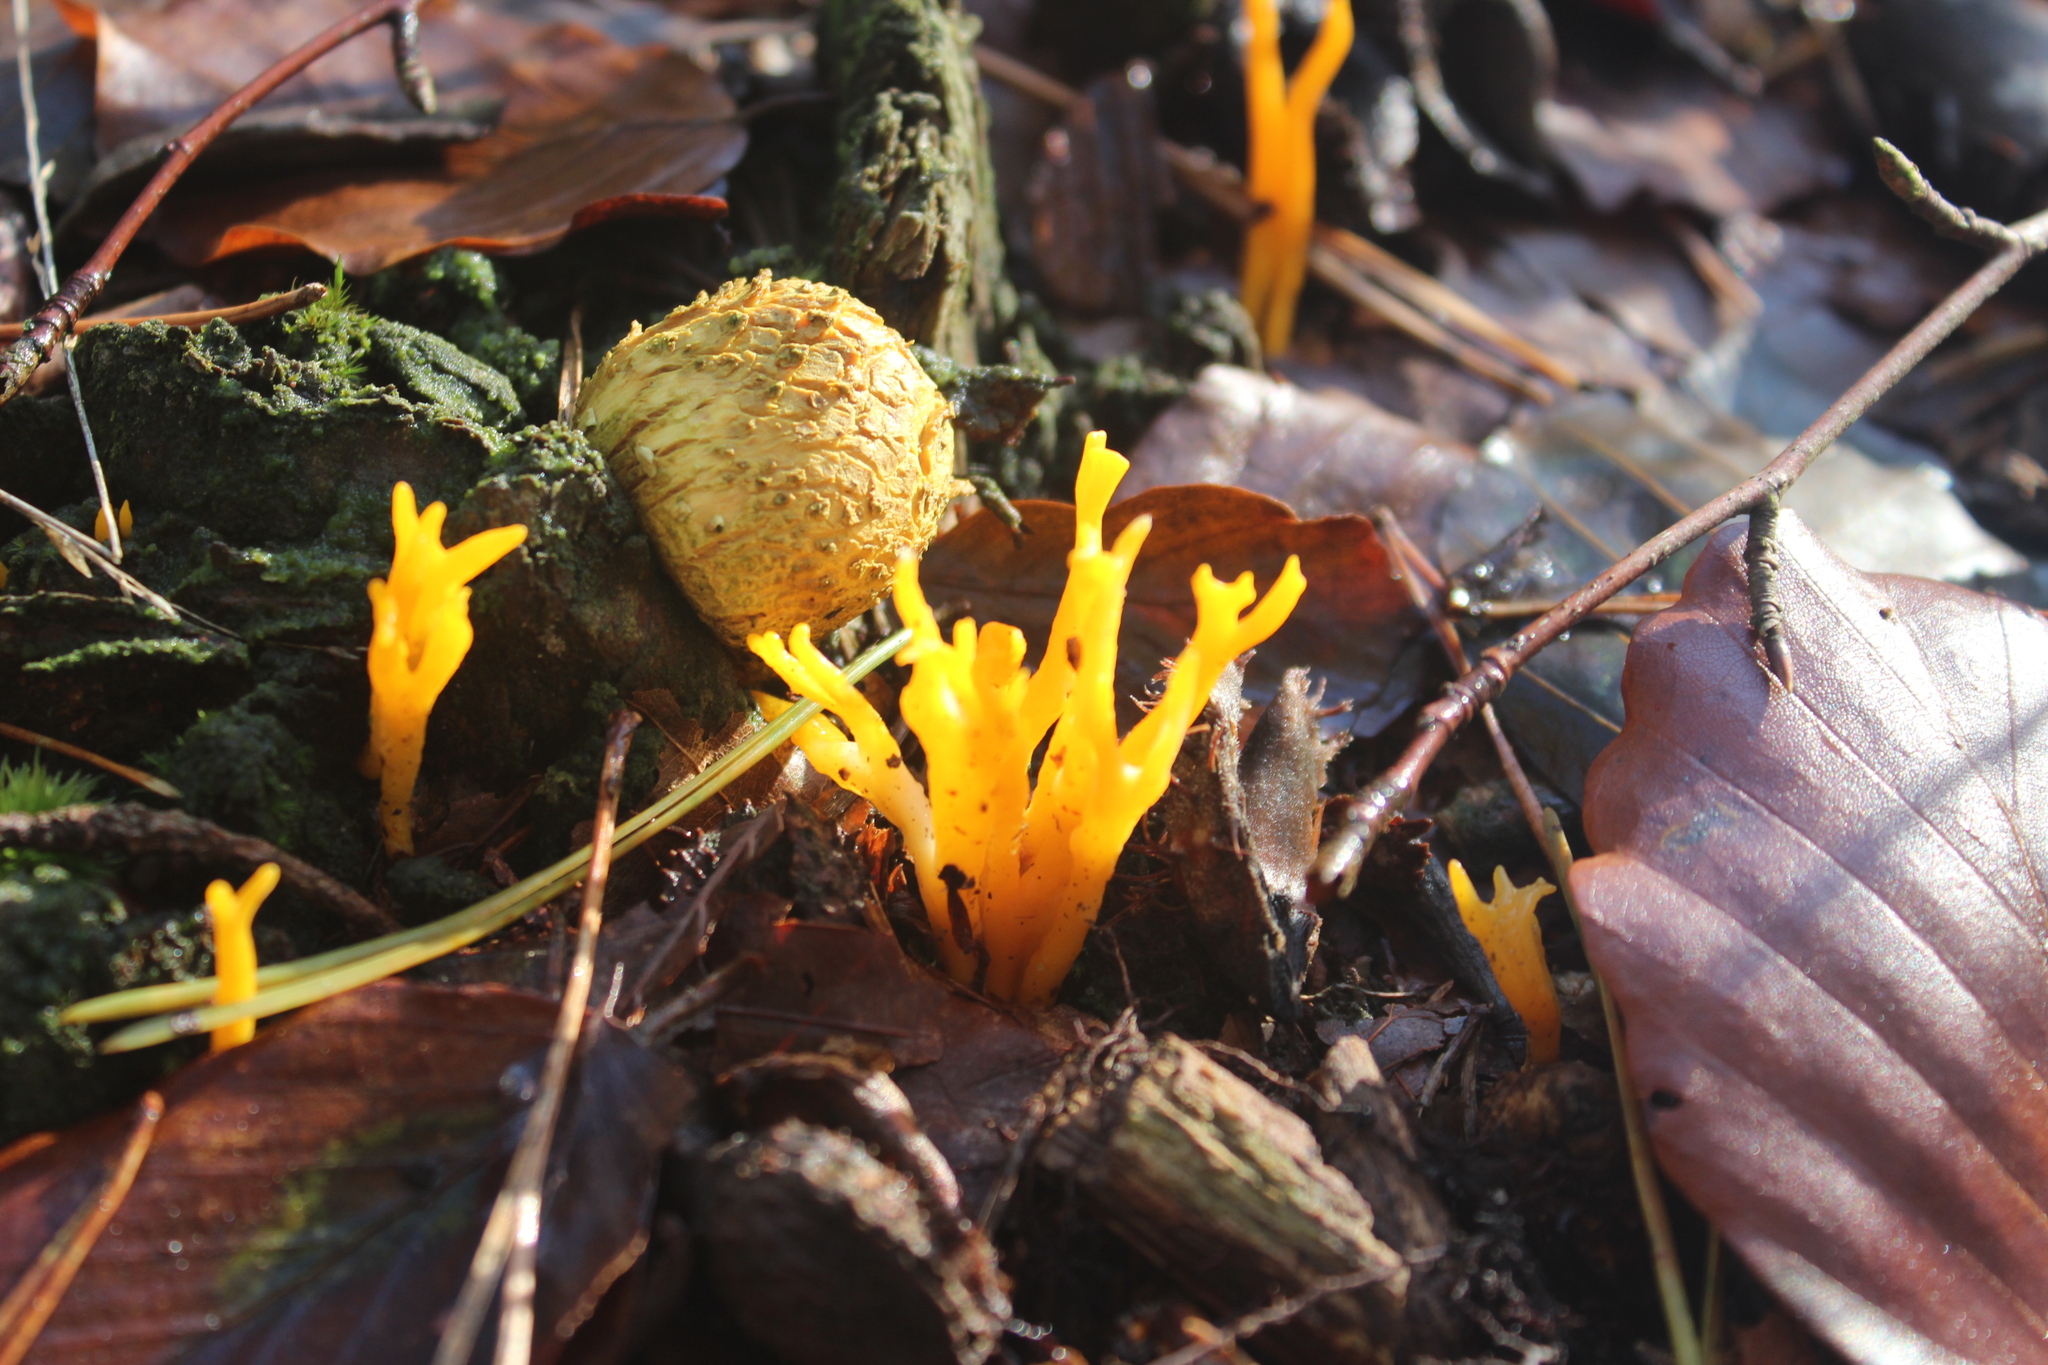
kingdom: Fungi
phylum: Basidiomycota
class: Dacrymycetes
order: Dacrymycetales
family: Dacrymycetaceae
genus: Calocera
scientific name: Calocera viscosa
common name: Yellow stagshorn
